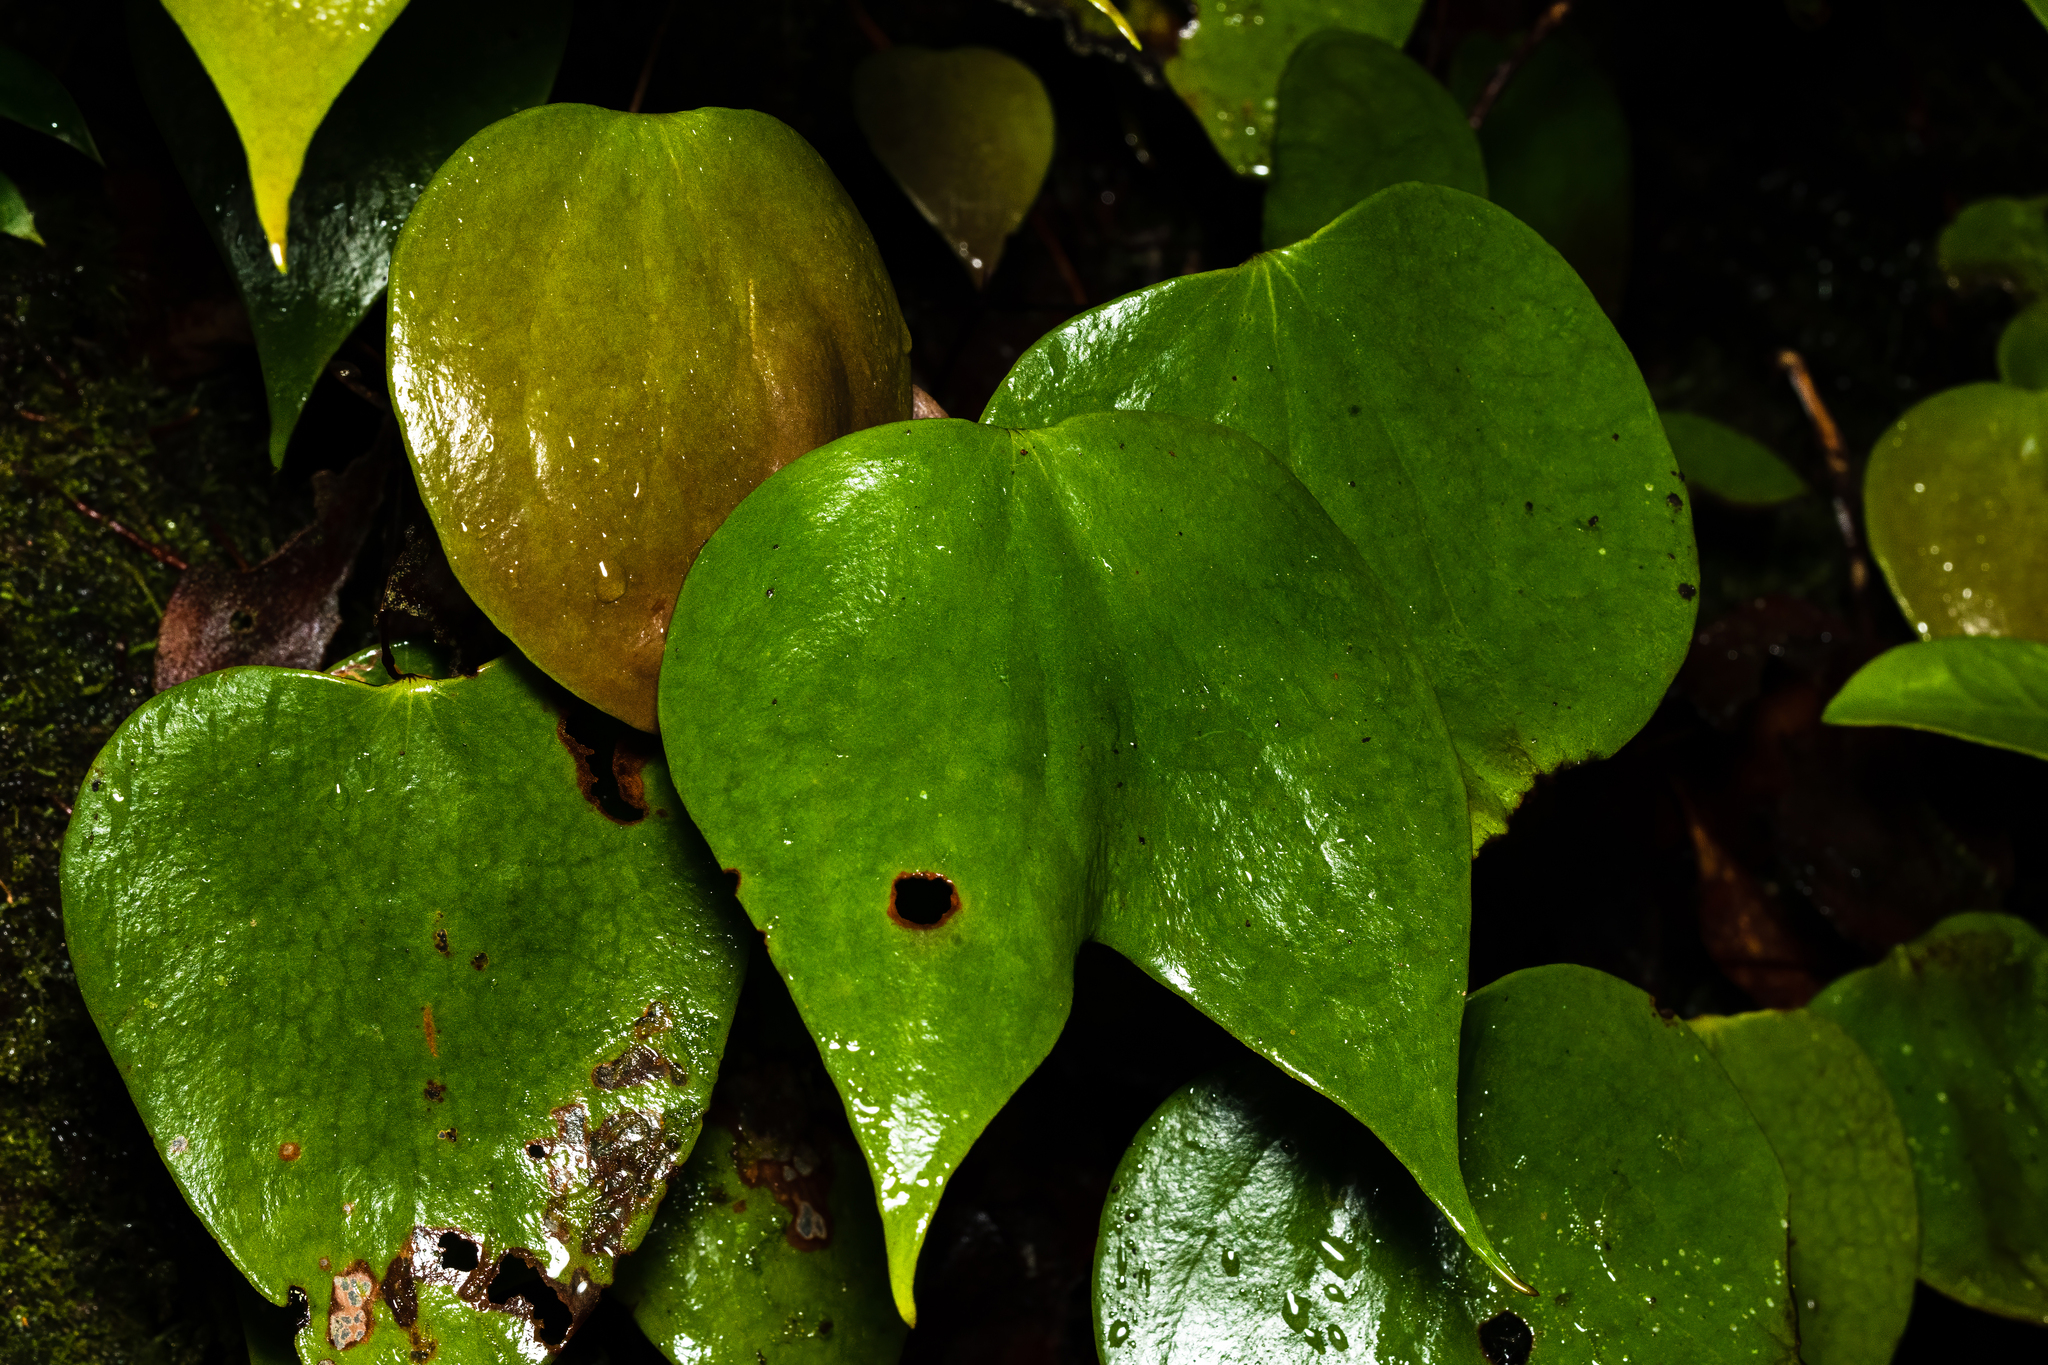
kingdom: Plantae
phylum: Tracheophyta
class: Polypodiopsida
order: Gleicheniales
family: Dipteridaceae
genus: Cheiropleuria
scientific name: Cheiropleuria bicuspis
